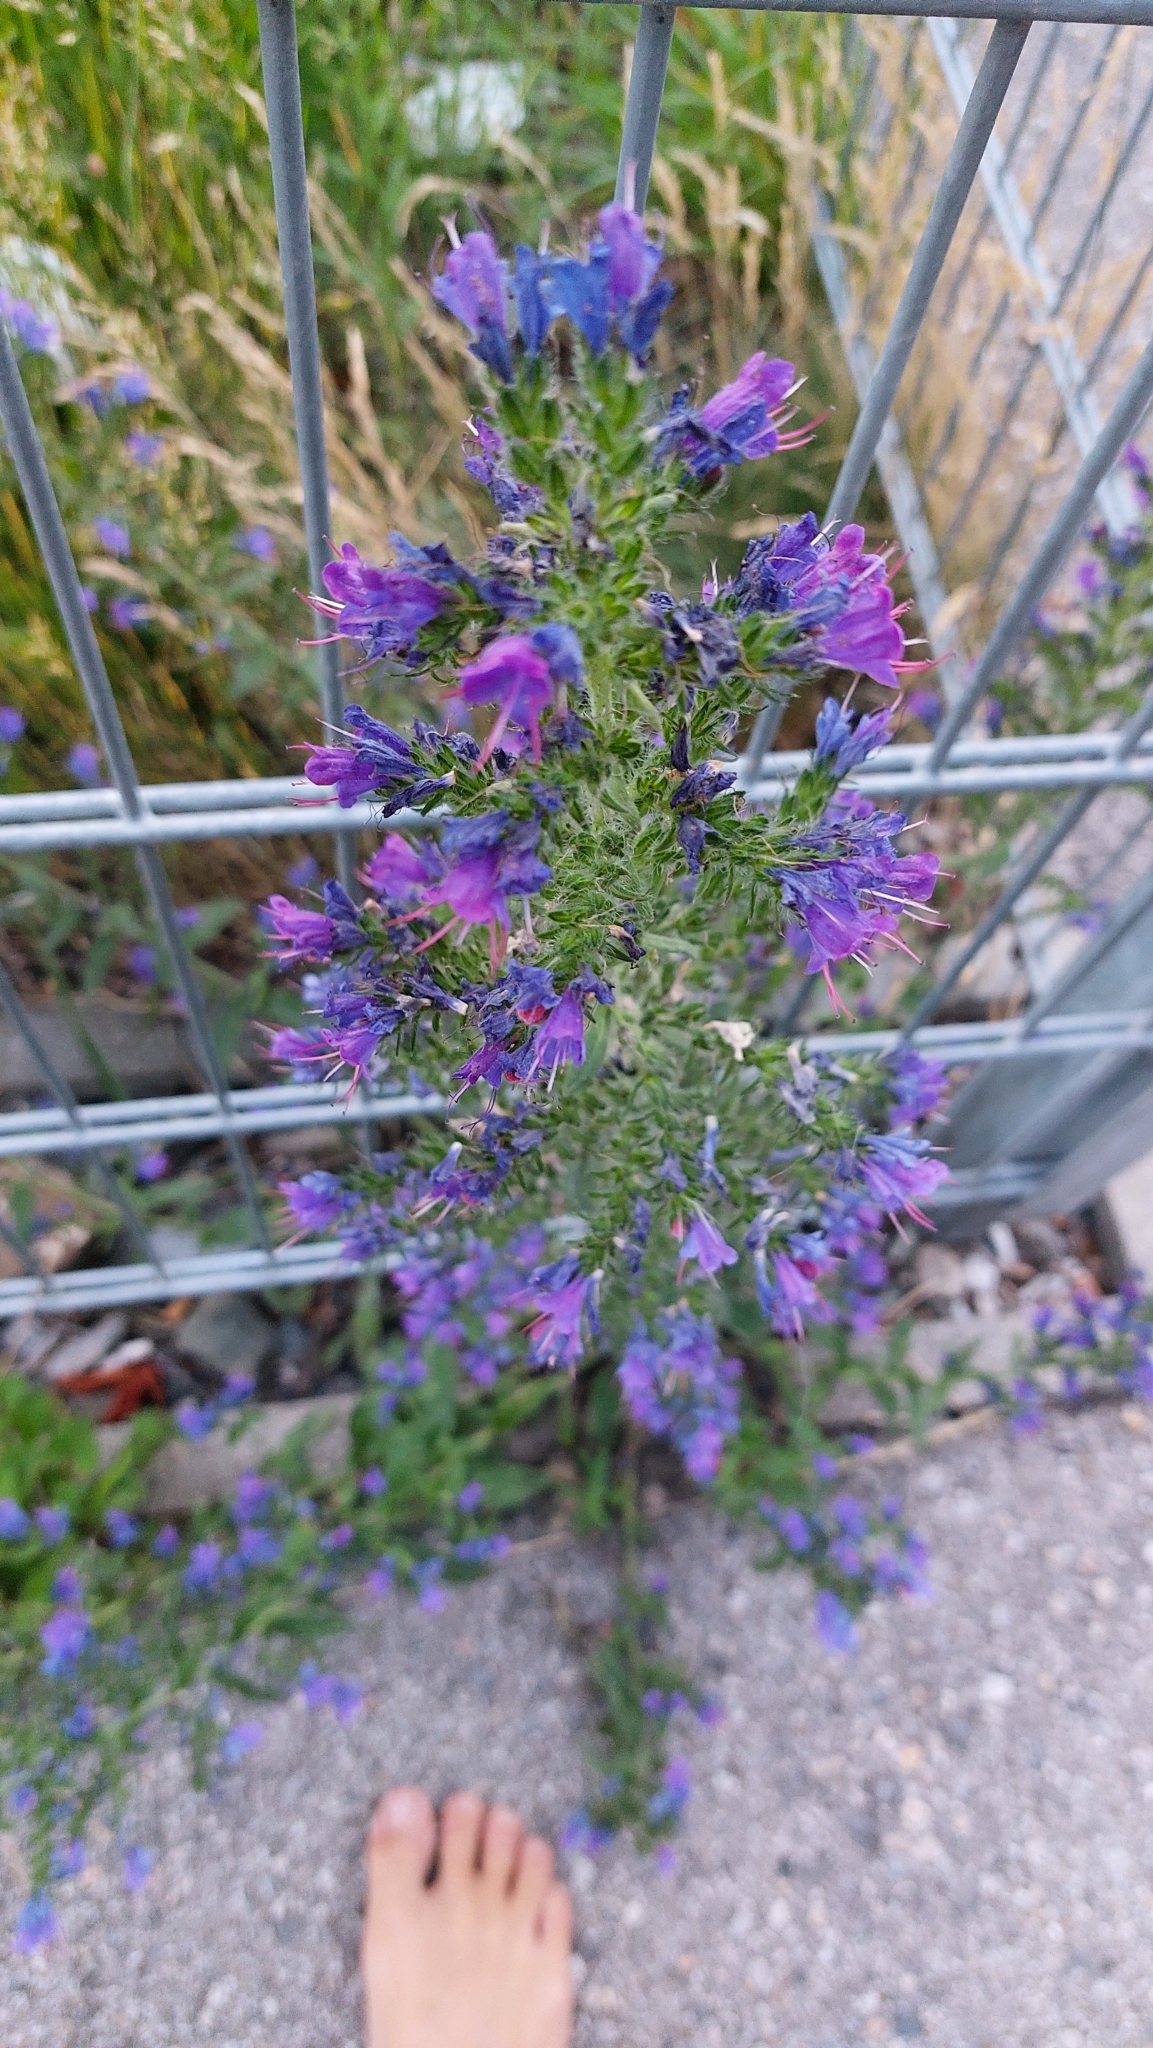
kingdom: Plantae
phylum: Tracheophyta
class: Magnoliopsida
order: Boraginales
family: Boraginaceae
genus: Echium
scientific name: Echium vulgare
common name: Common viper's bugloss
